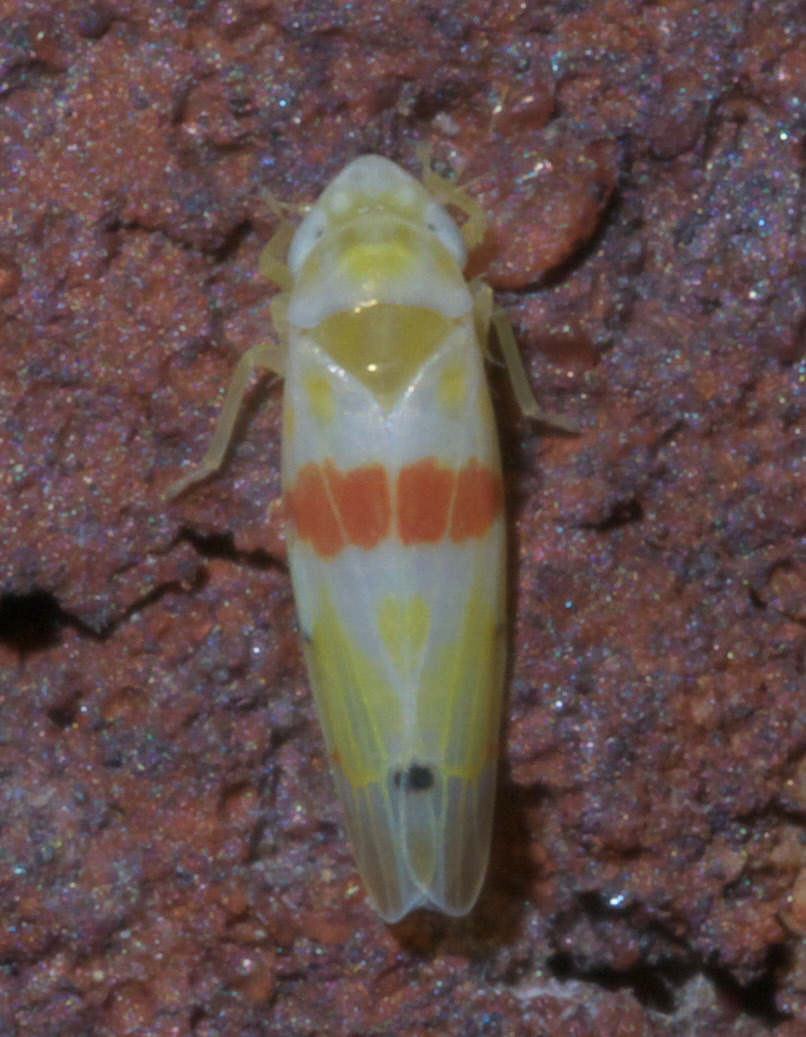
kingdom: Animalia
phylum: Arthropoda
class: Insecta
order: Hemiptera
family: Cicadellidae
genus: Eratoneura
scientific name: Eratoneura era
